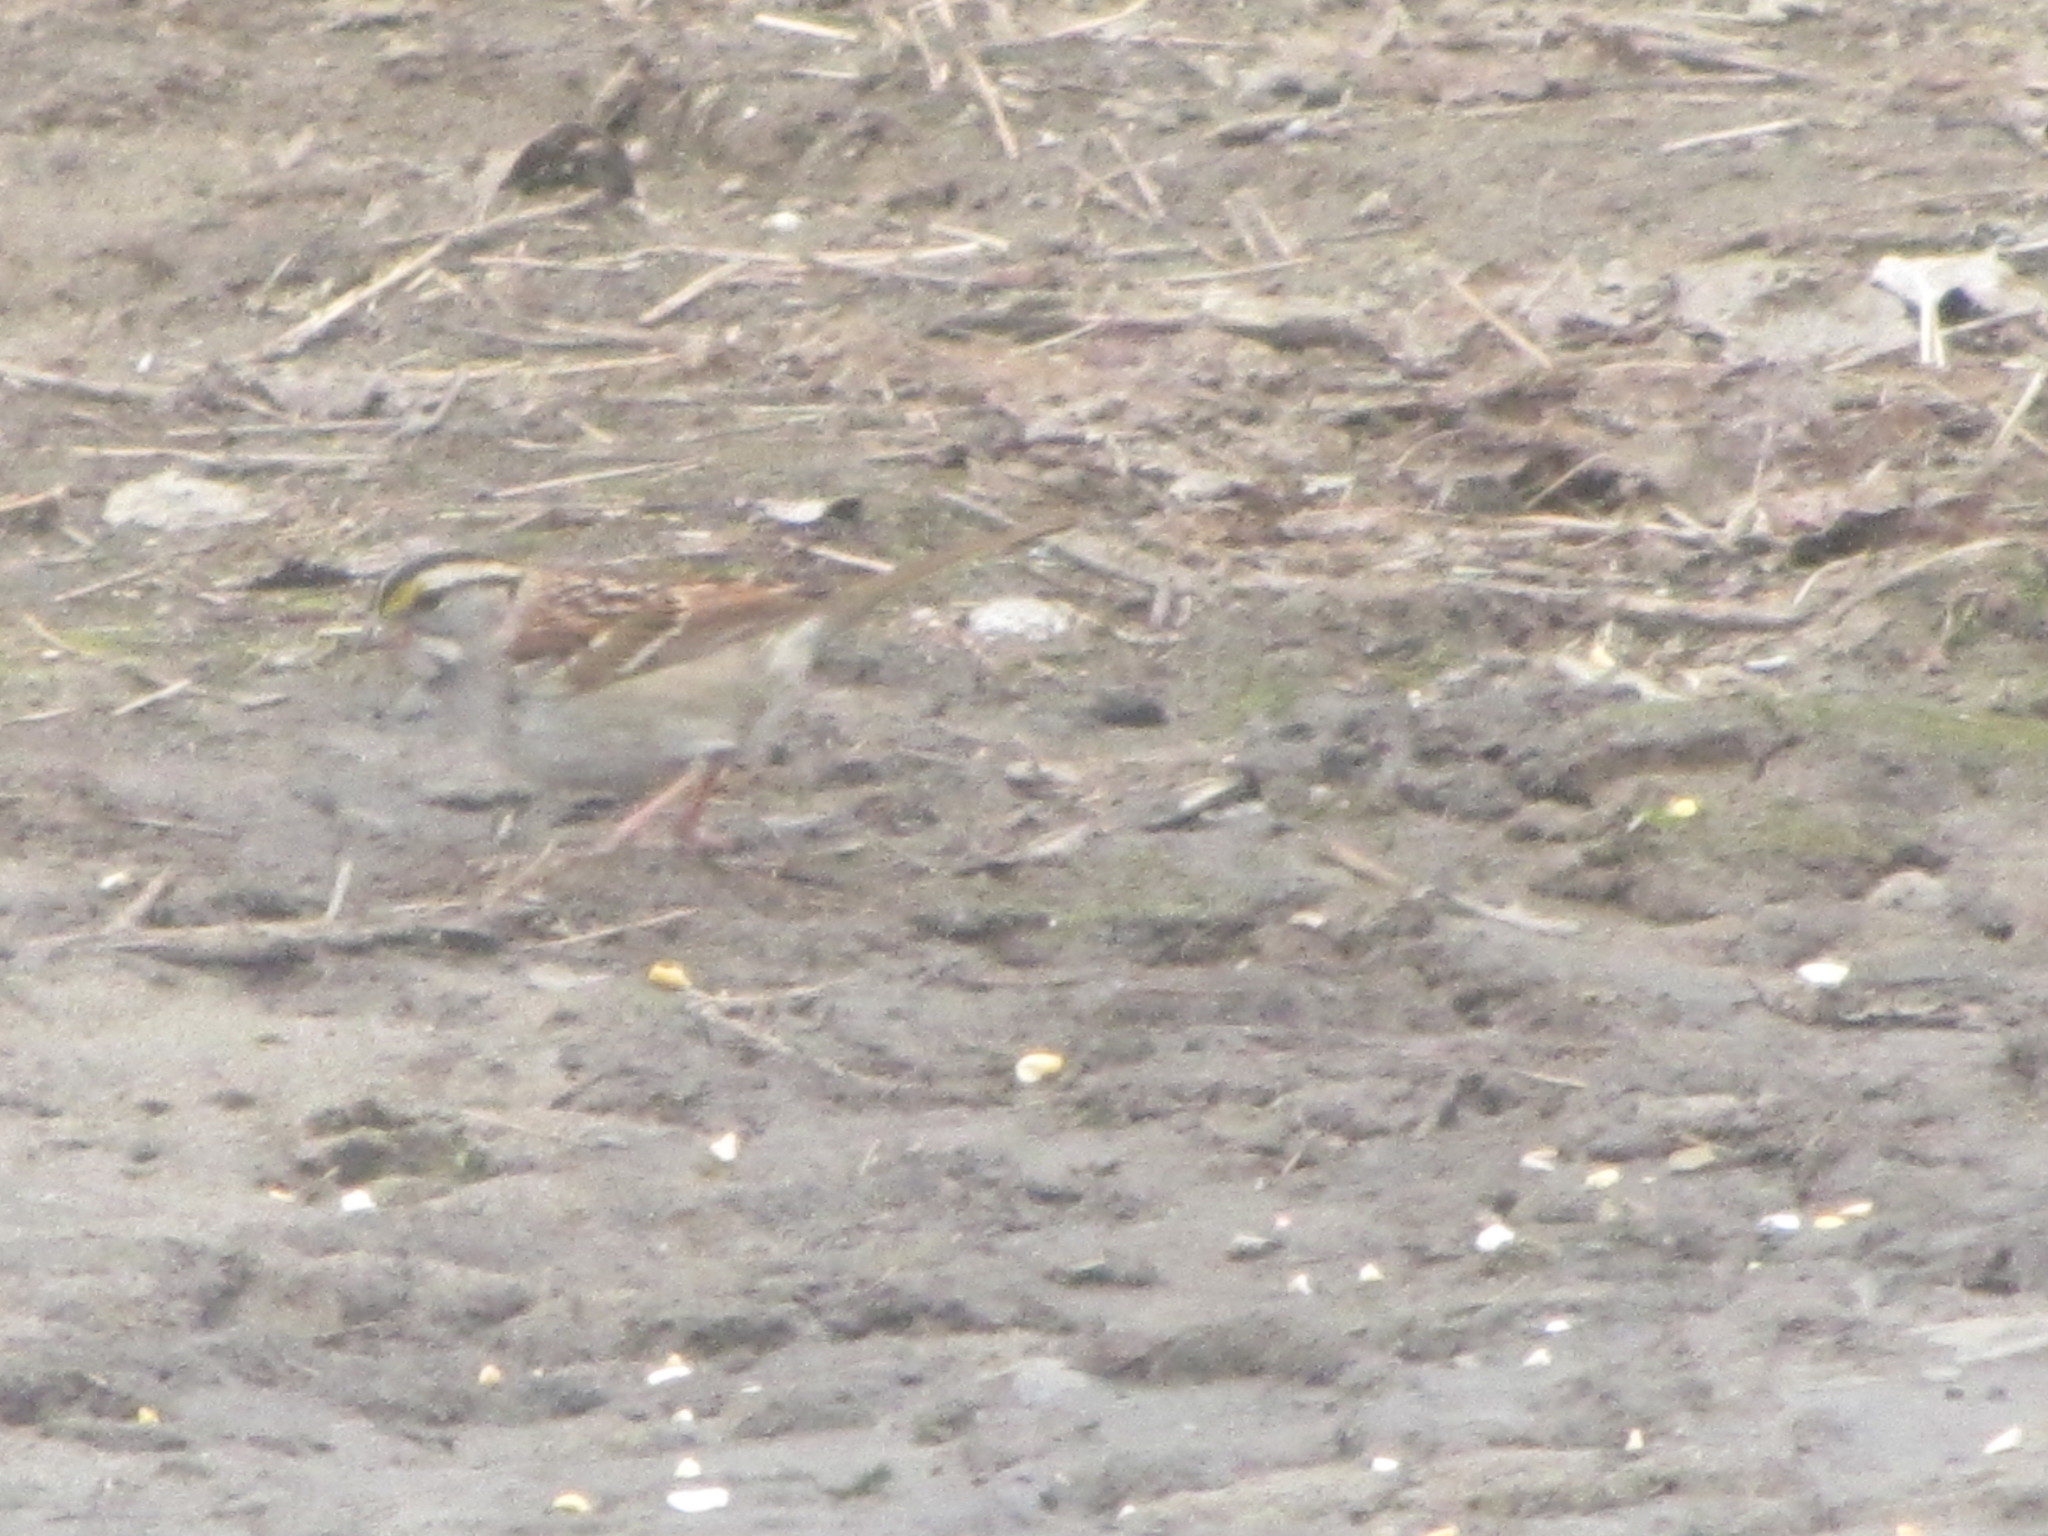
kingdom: Animalia
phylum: Chordata
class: Aves
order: Passeriformes
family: Passerellidae
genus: Zonotrichia
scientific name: Zonotrichia albicollis
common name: White-throated sparrow
